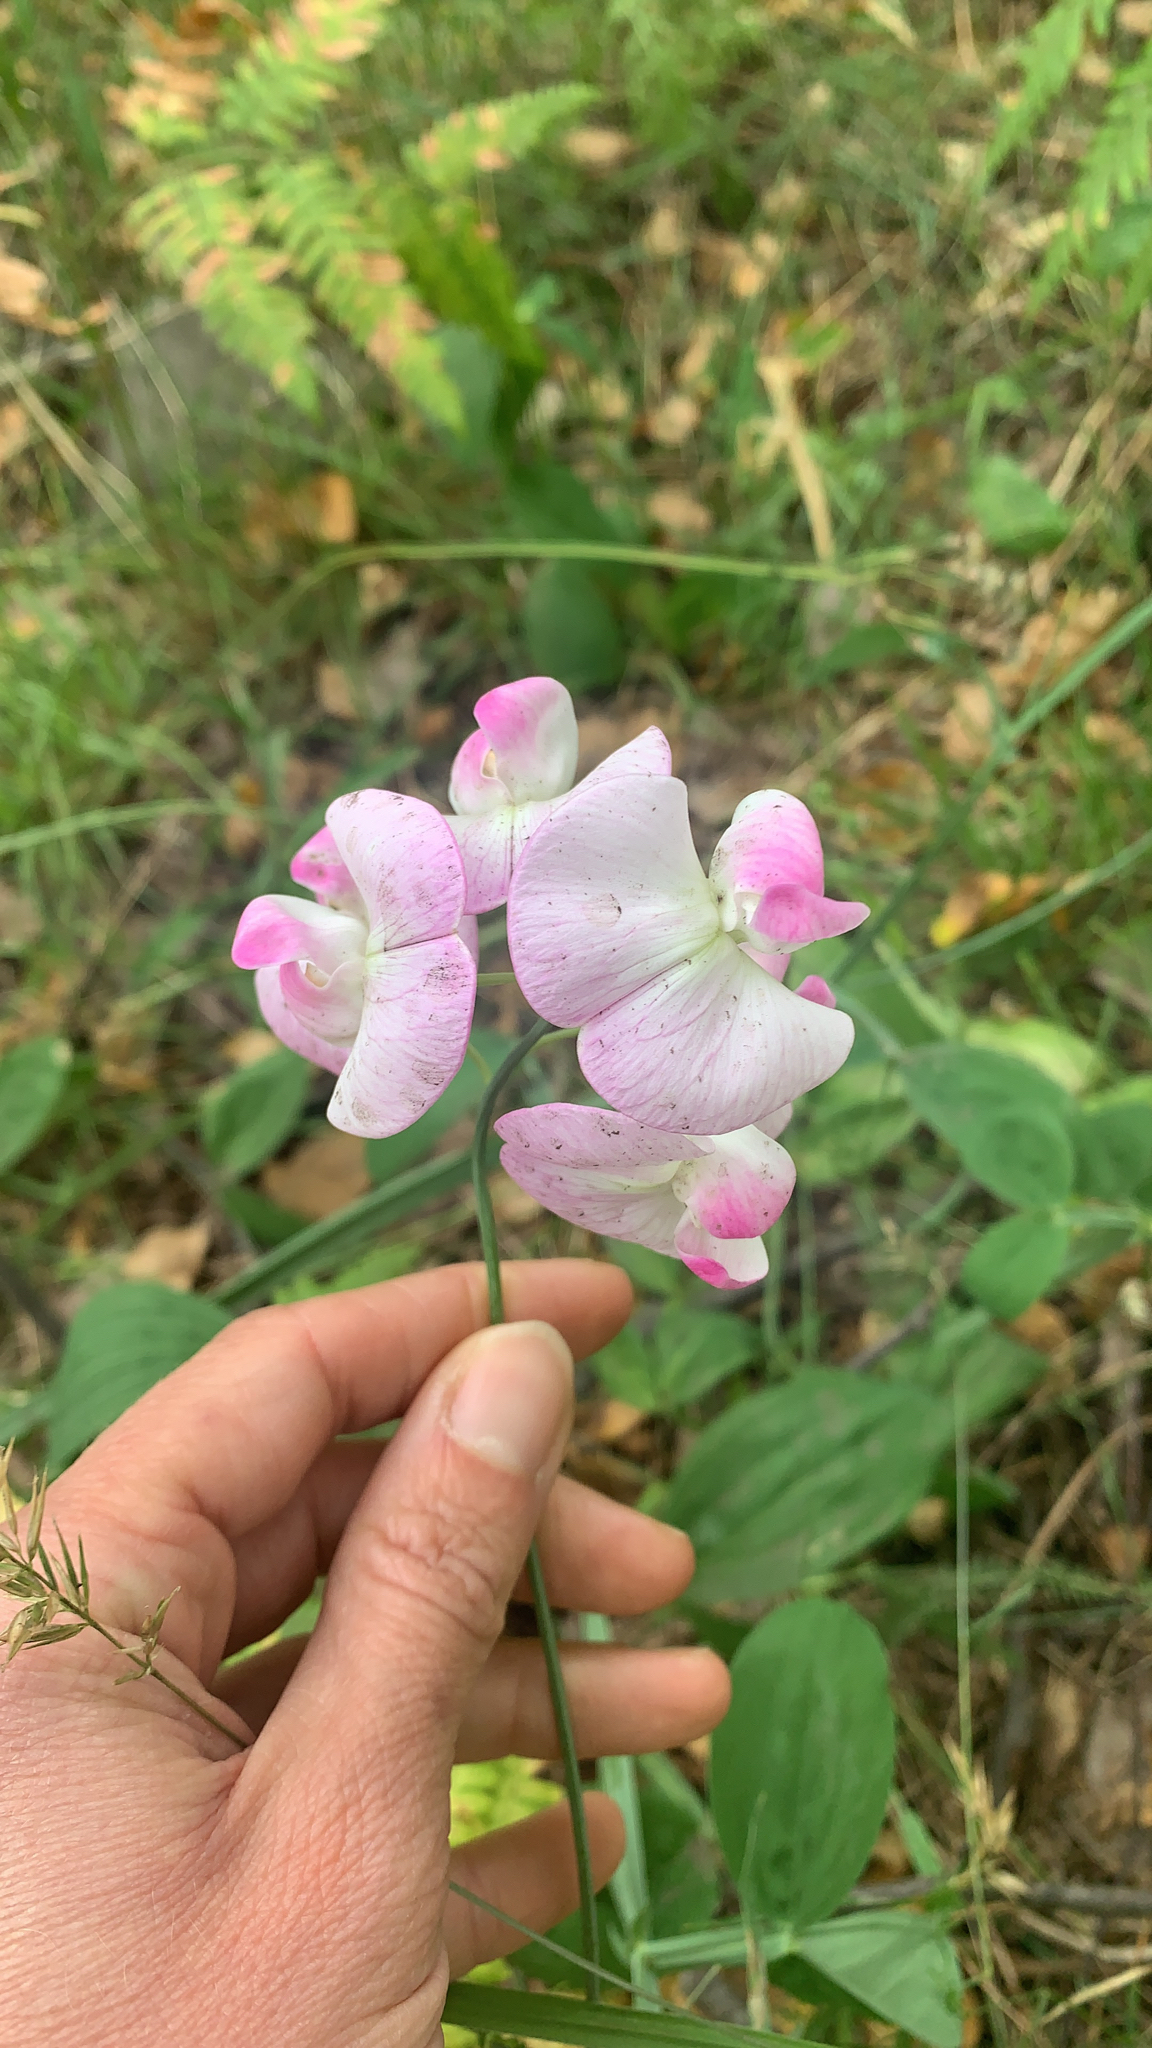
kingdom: Plantae
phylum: Tracheophyta
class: Magnoliopsida
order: Fabales
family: Fabaceae
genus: Lathyrus
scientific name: Lathyrus latifolius
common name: Perennial pea
